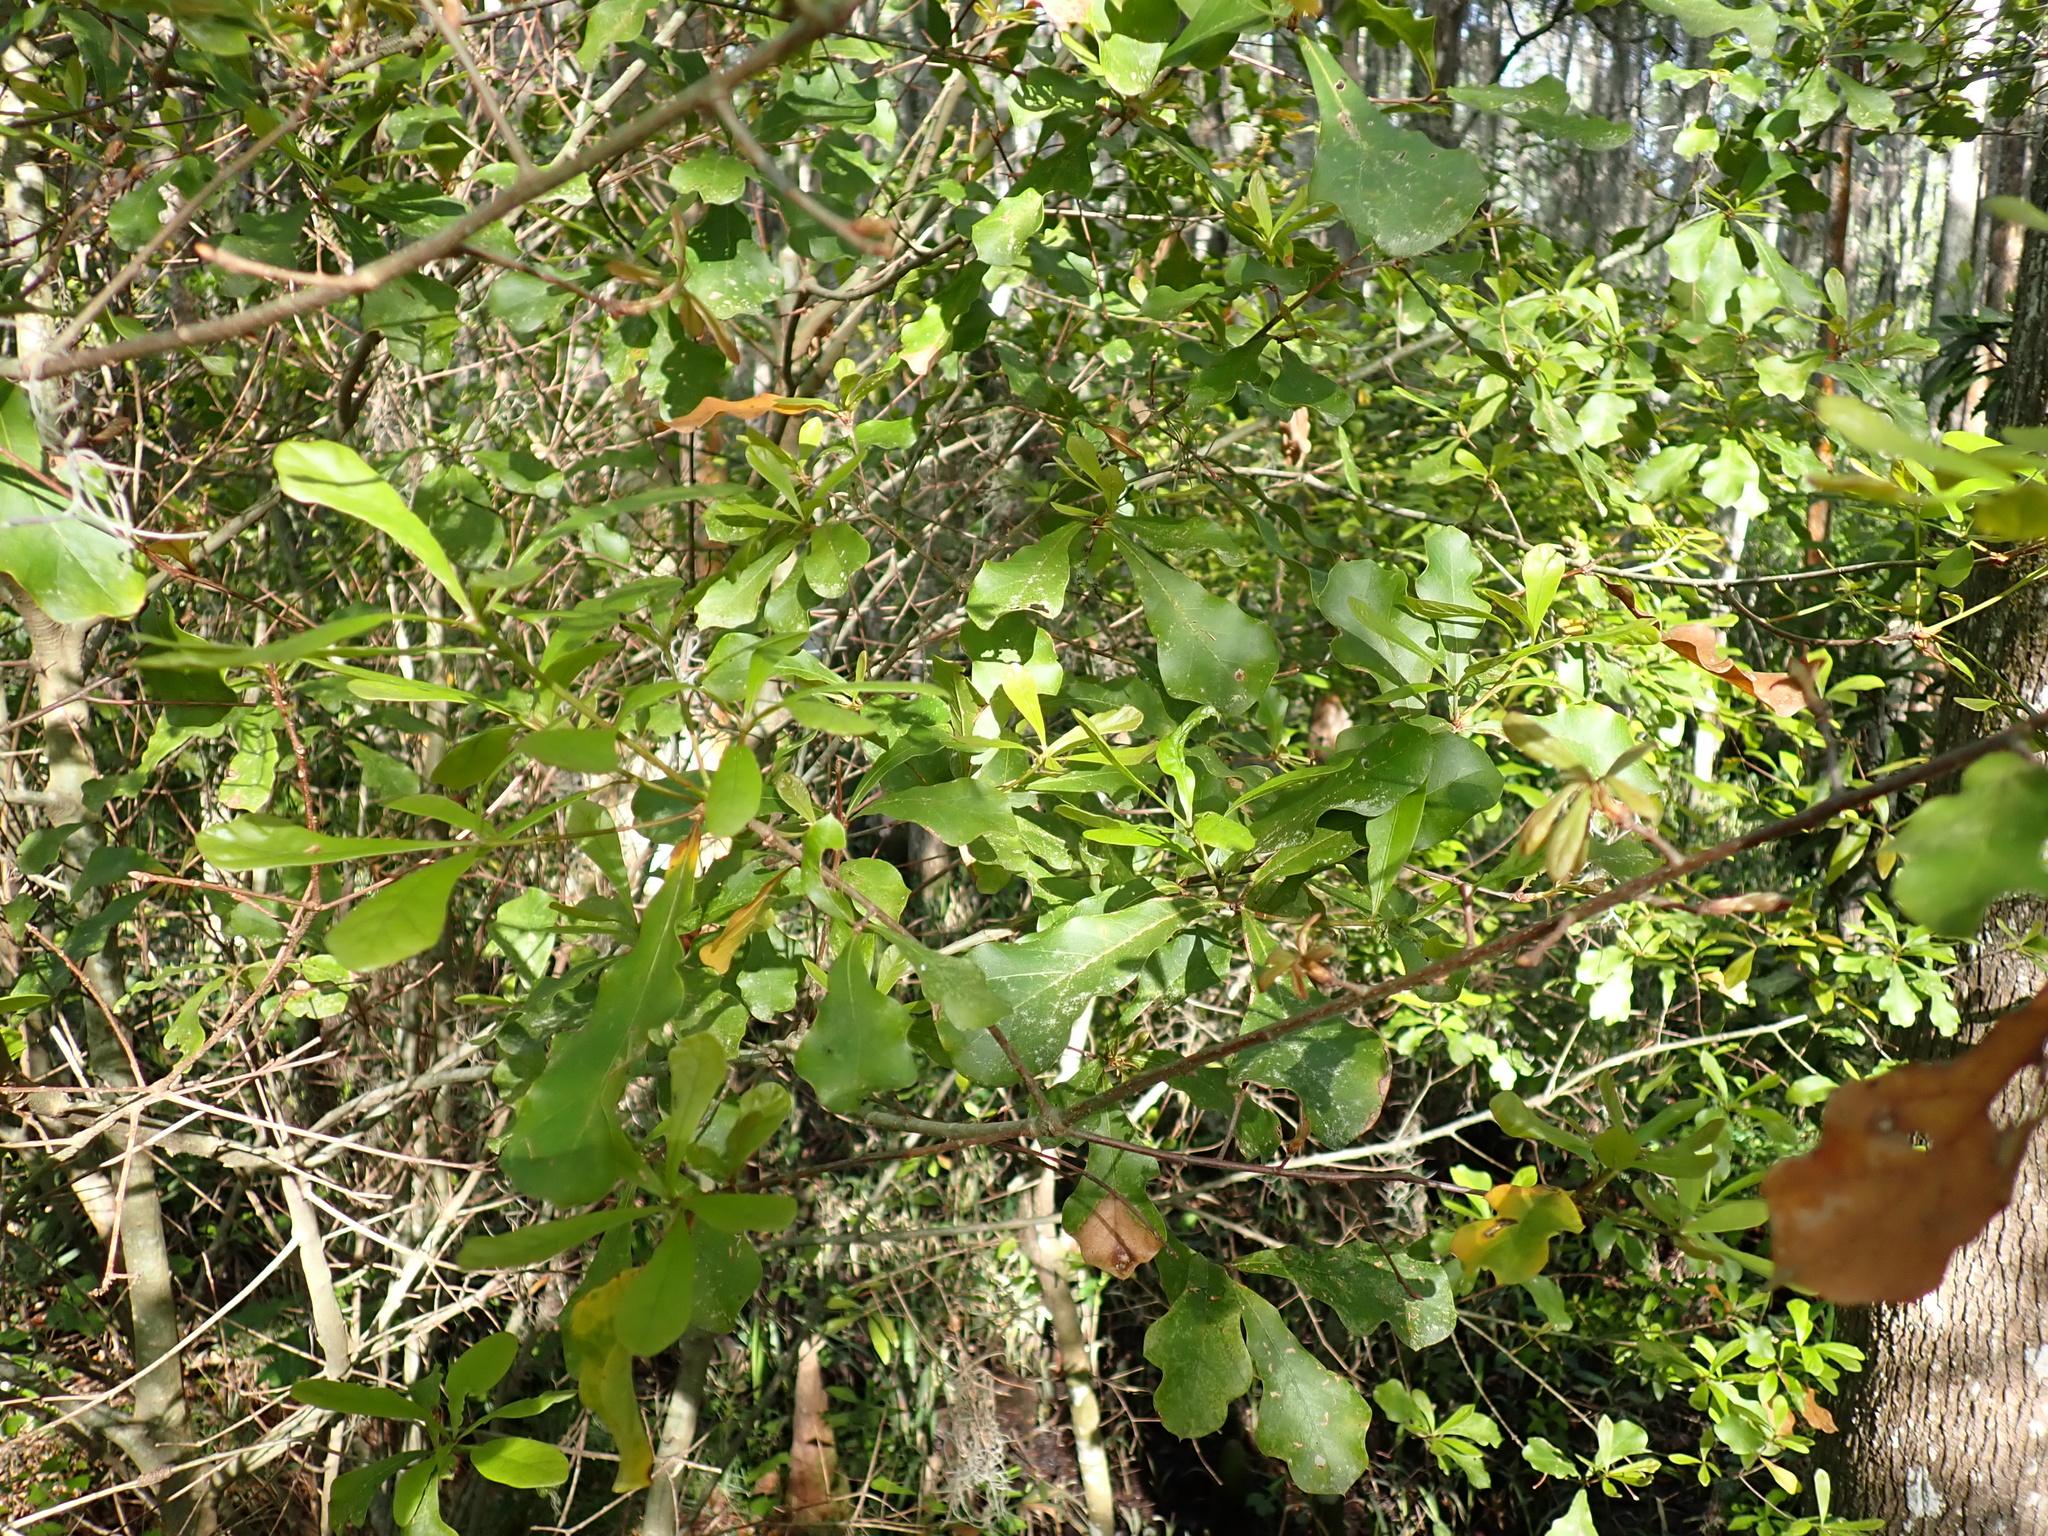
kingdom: Plantae
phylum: Tracheophyta
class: Magnoliopsida
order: Fagales
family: Fagaceae
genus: Quercus
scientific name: Quercus nigra
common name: Water oak
